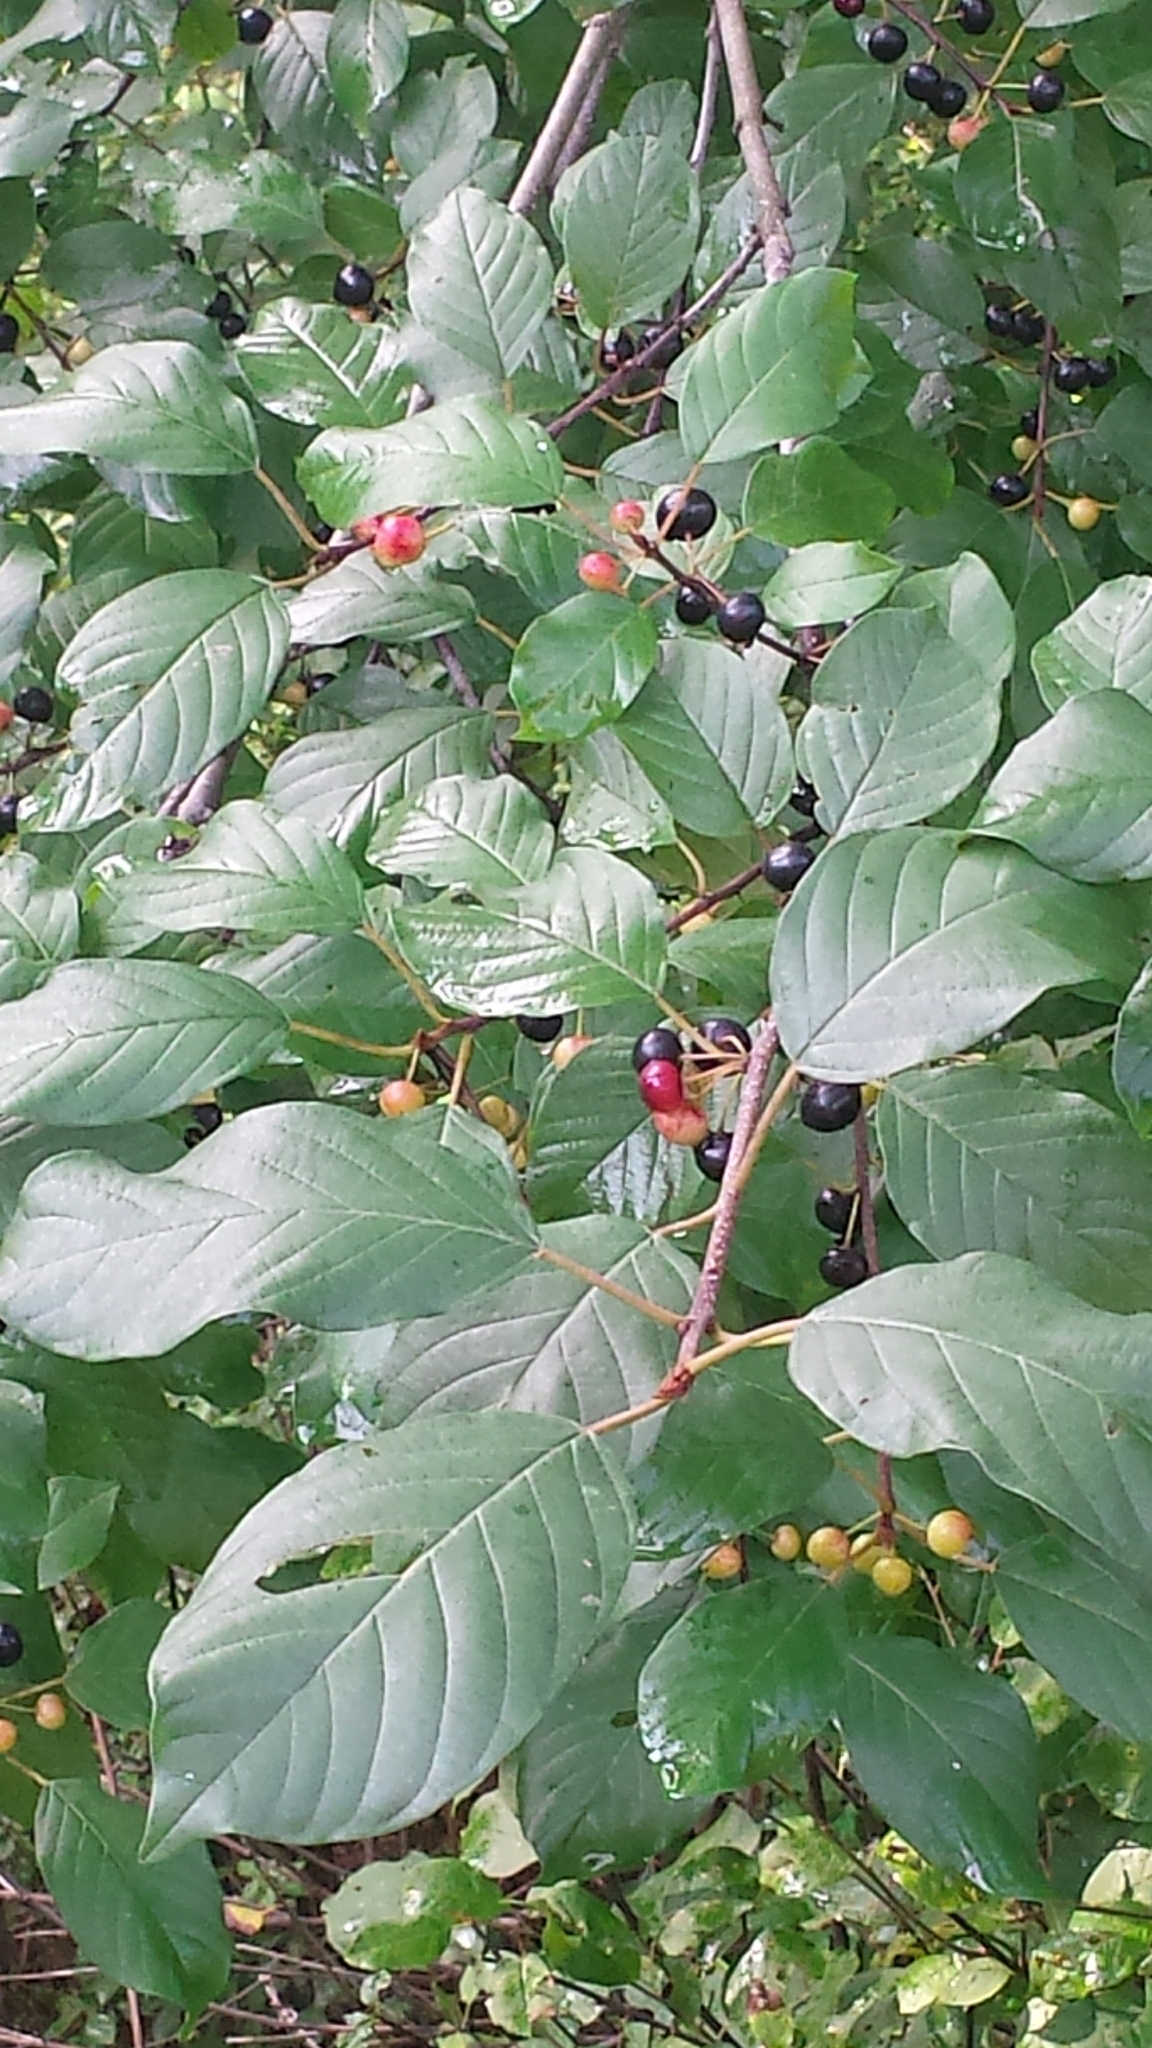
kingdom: Plantae
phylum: Tracheophyta
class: Magnoliopsida
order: Rosales
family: Rhamnaceae
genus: Frangula
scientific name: Frangula alnus
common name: Alder buckthorn
